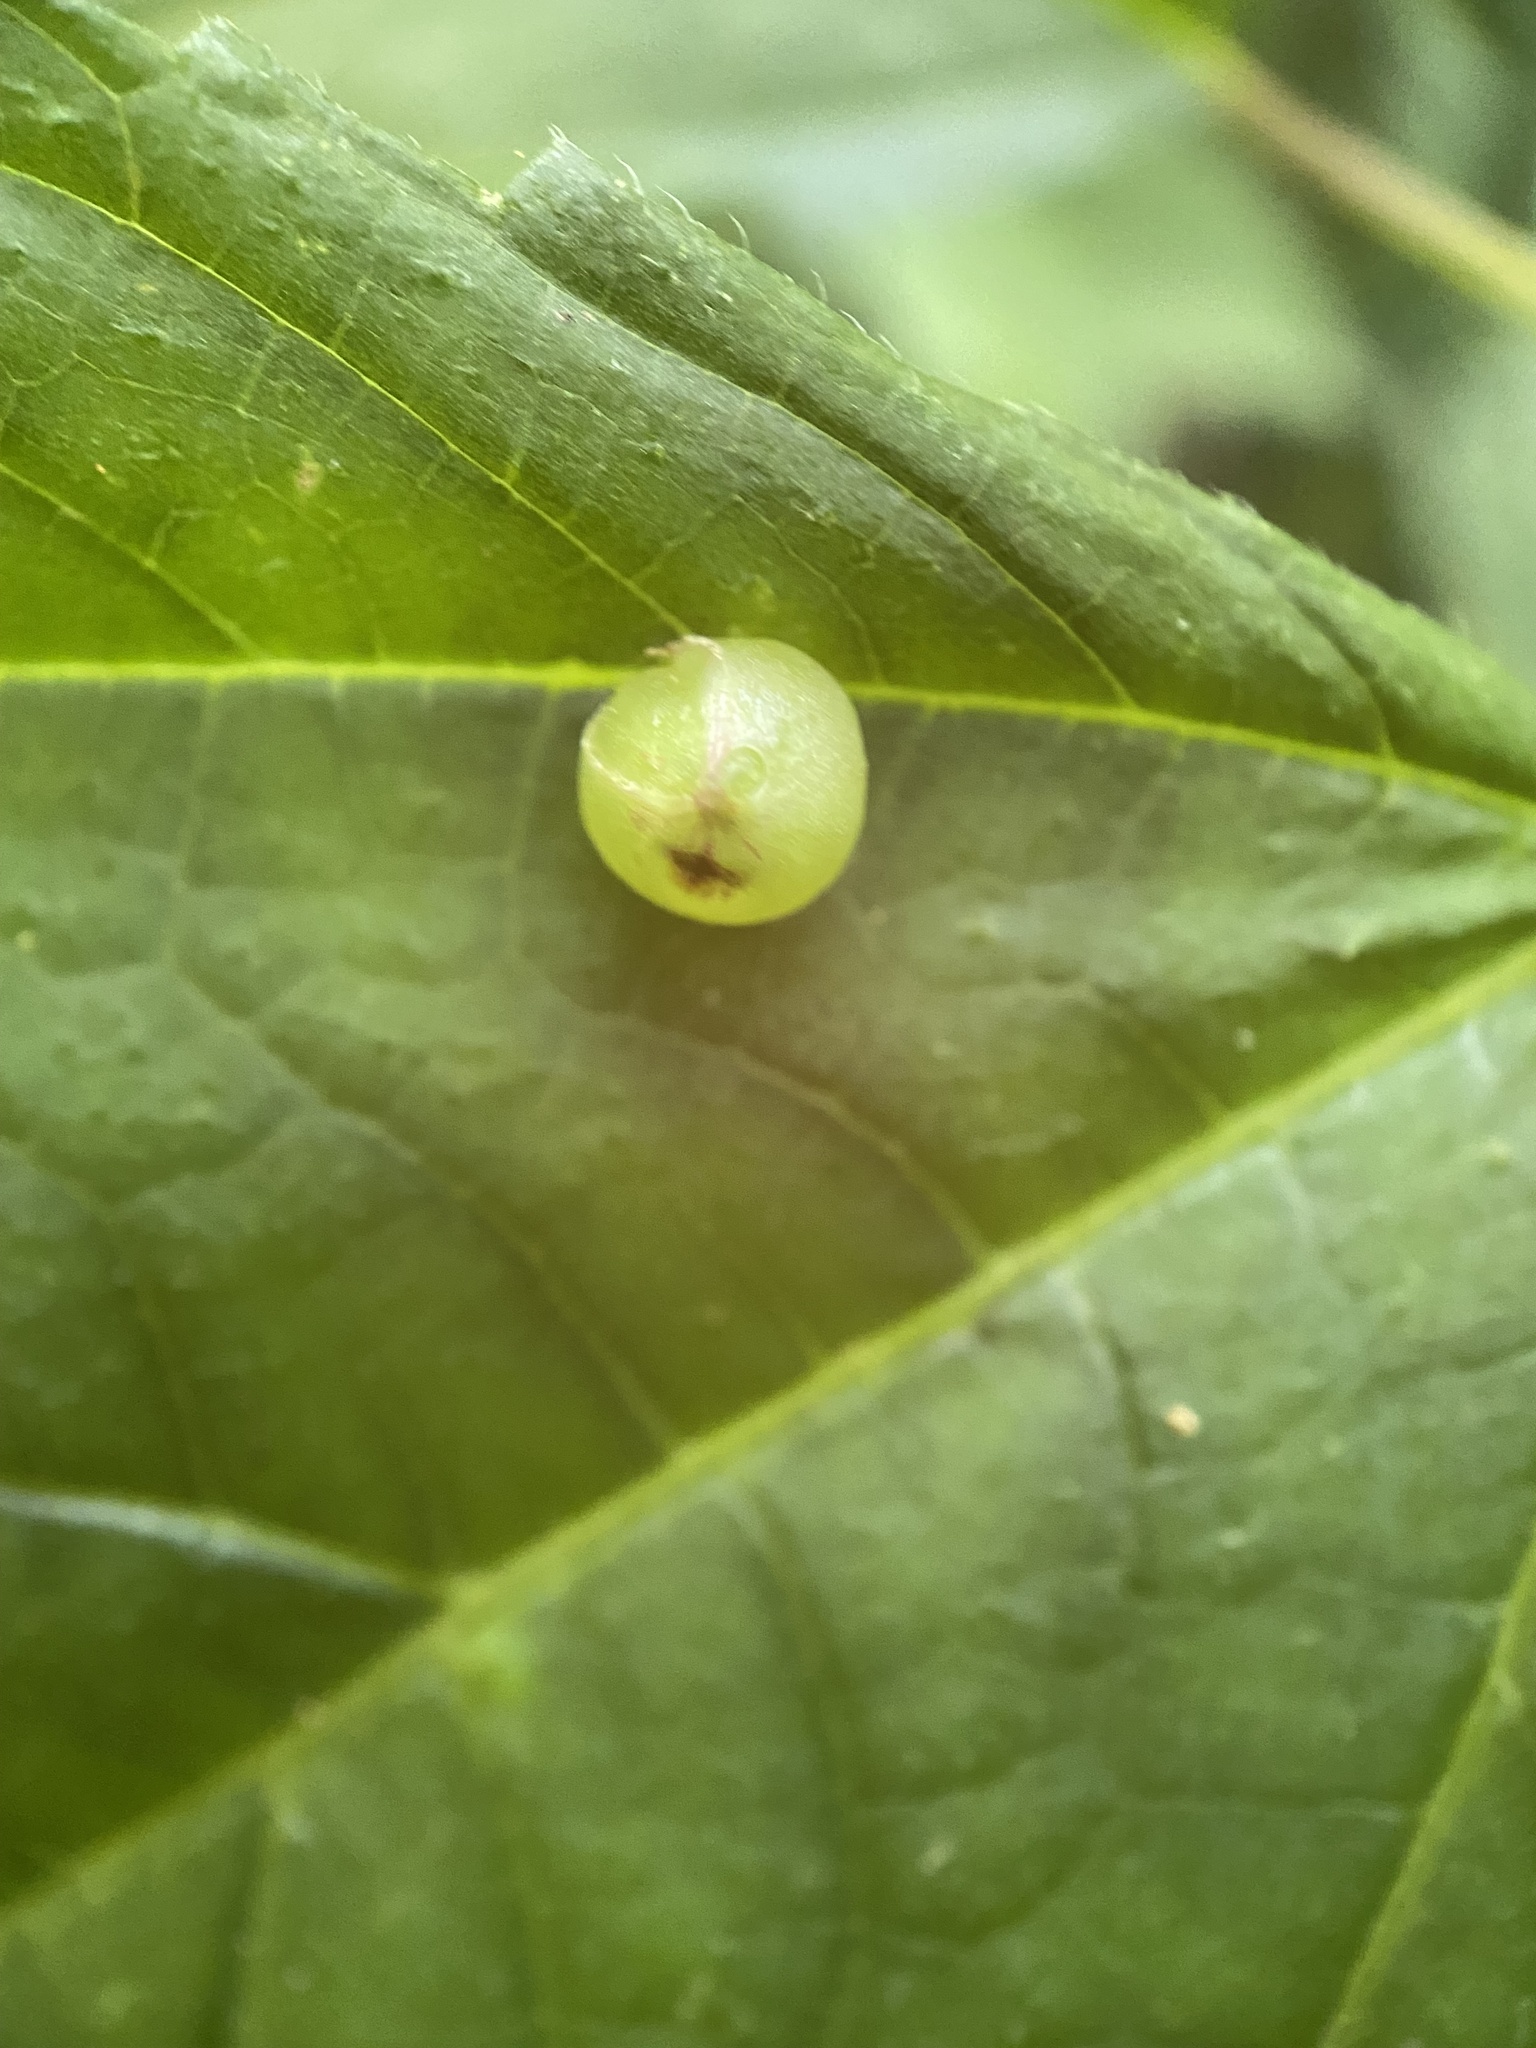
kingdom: Animalia
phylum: Arthropoda
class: Insecta
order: Diptera
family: Cecidomyiidae
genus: Dasineura
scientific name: Dasineura investita
